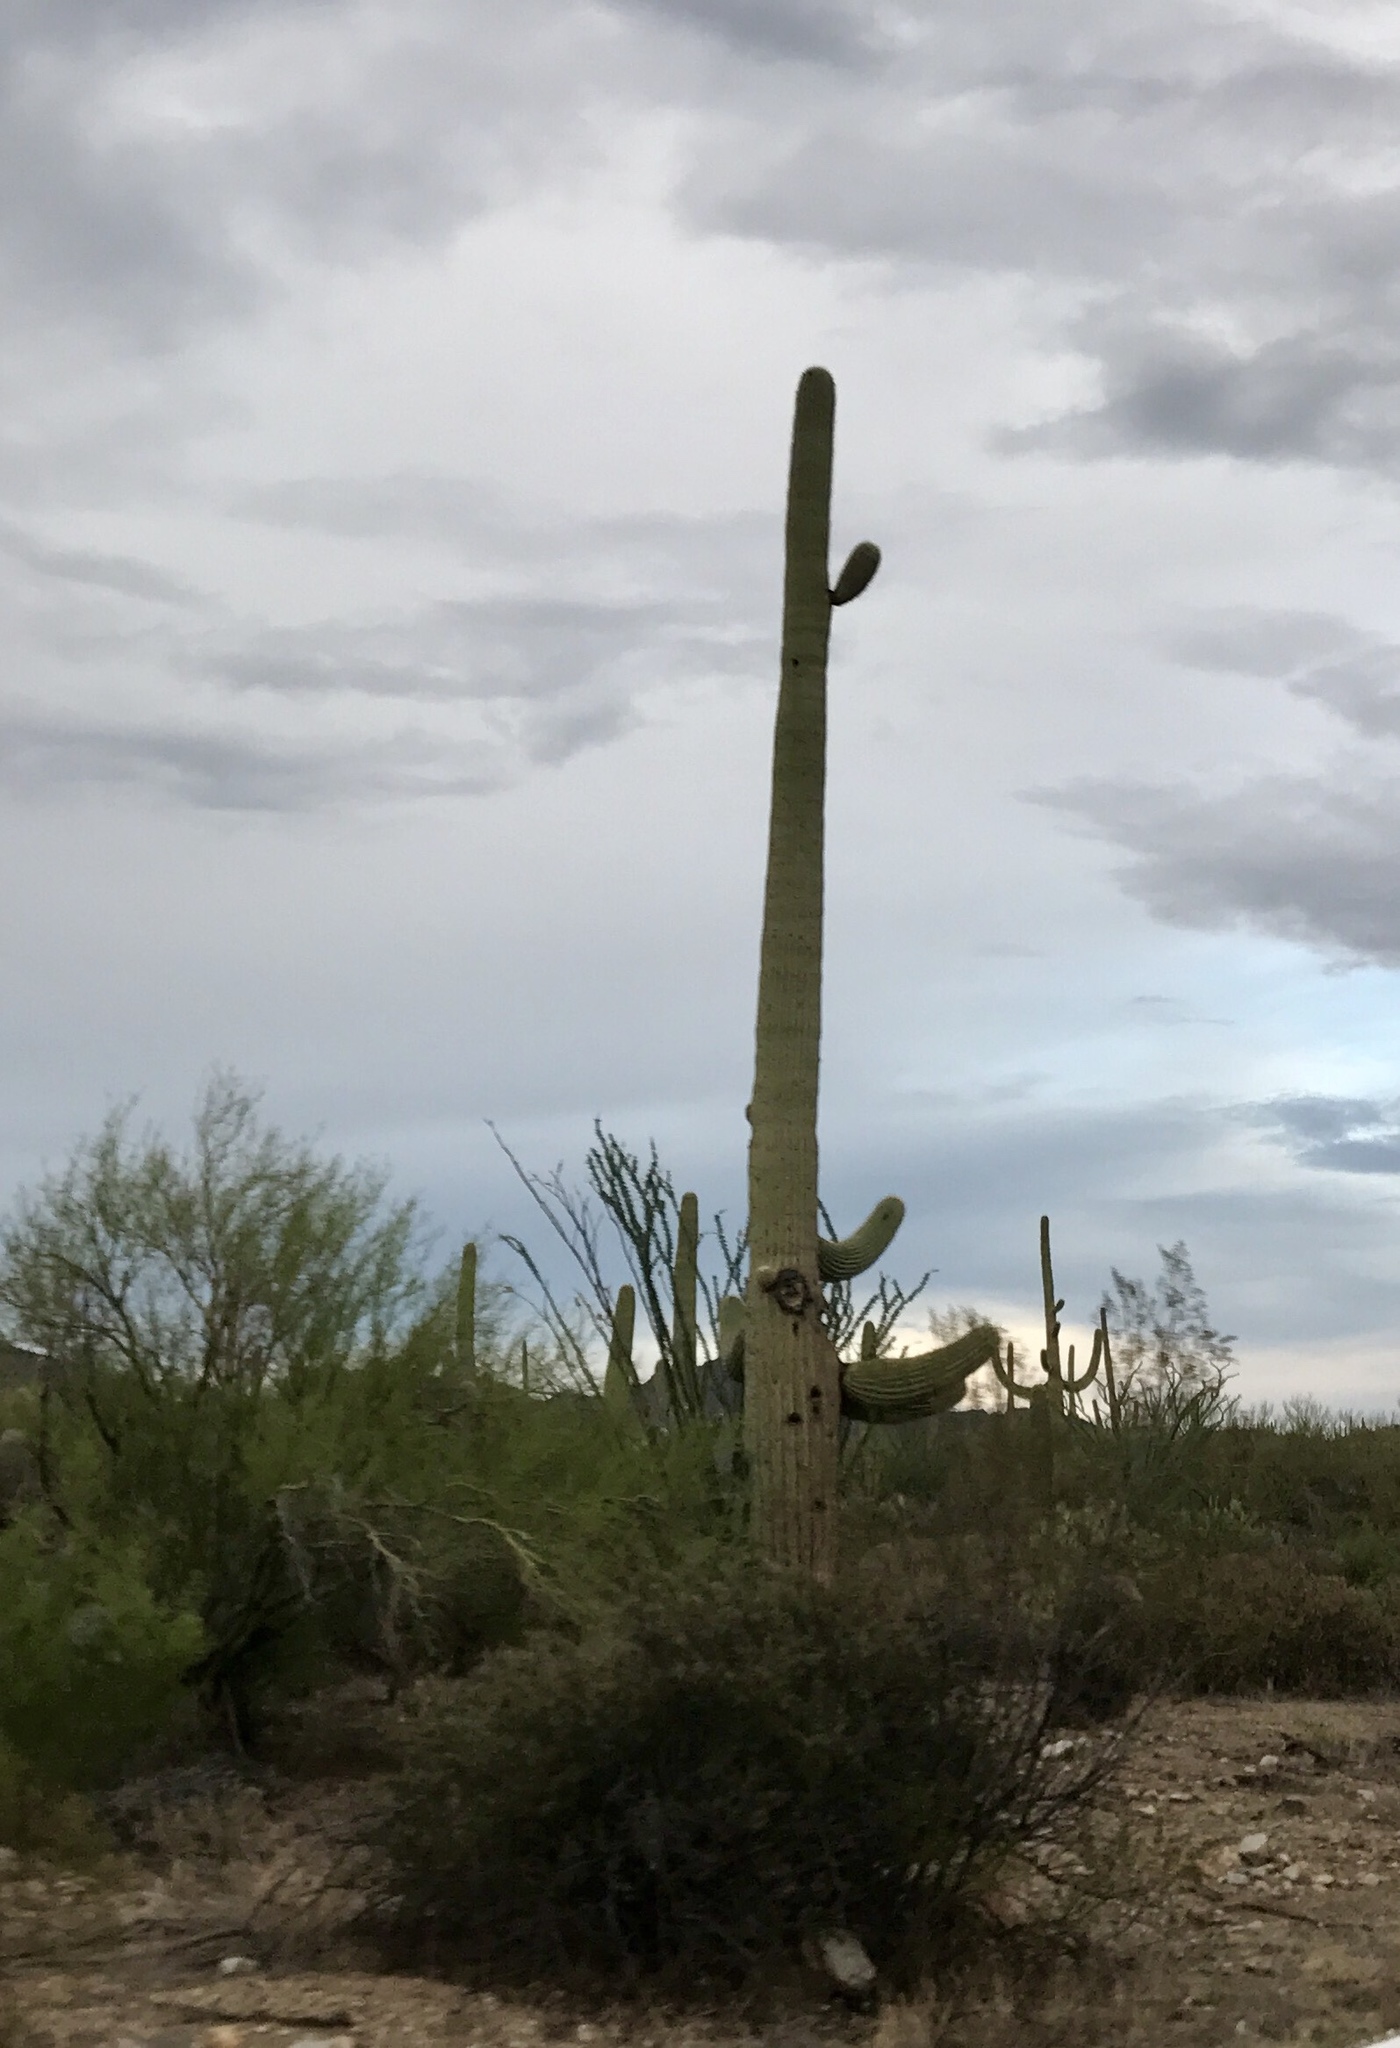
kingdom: Plantae
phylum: Tracheophyta
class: Magnoliopsida
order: Caryophyllales
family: Cactaceae
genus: Carnegiea
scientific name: Carnegiea gigantea
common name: Saguaro
